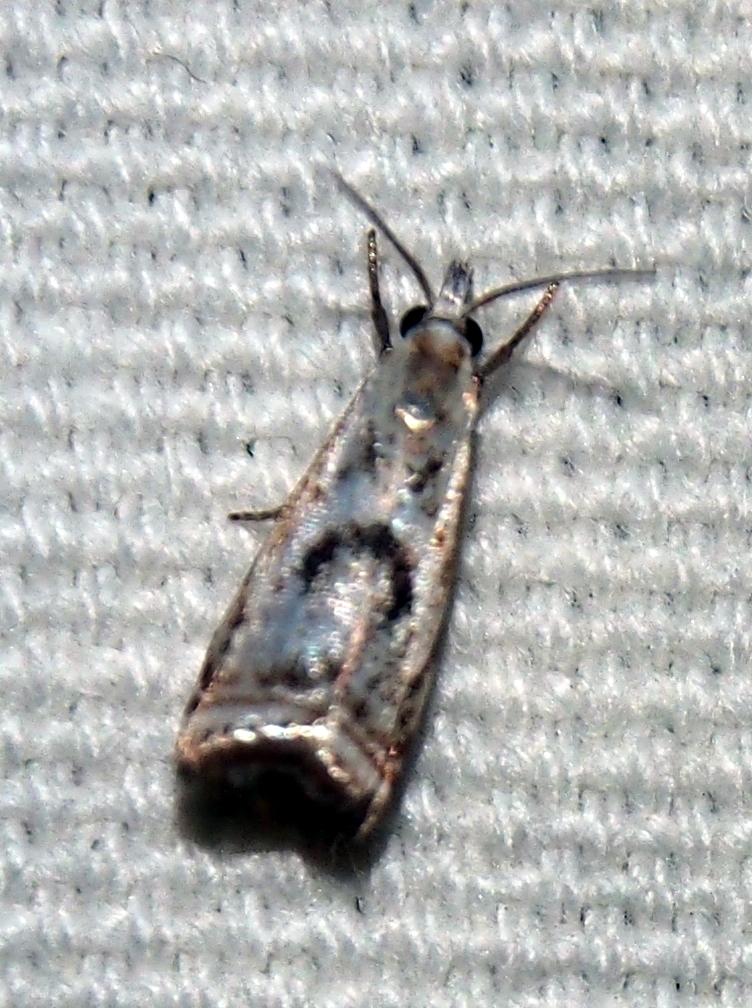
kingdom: Animalia
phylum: Arthropoda
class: Insecta
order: Lepidoptera
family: Crambidae
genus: Microcrambus
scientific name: Microcrambus elegans
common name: Elegant grass-veneer
